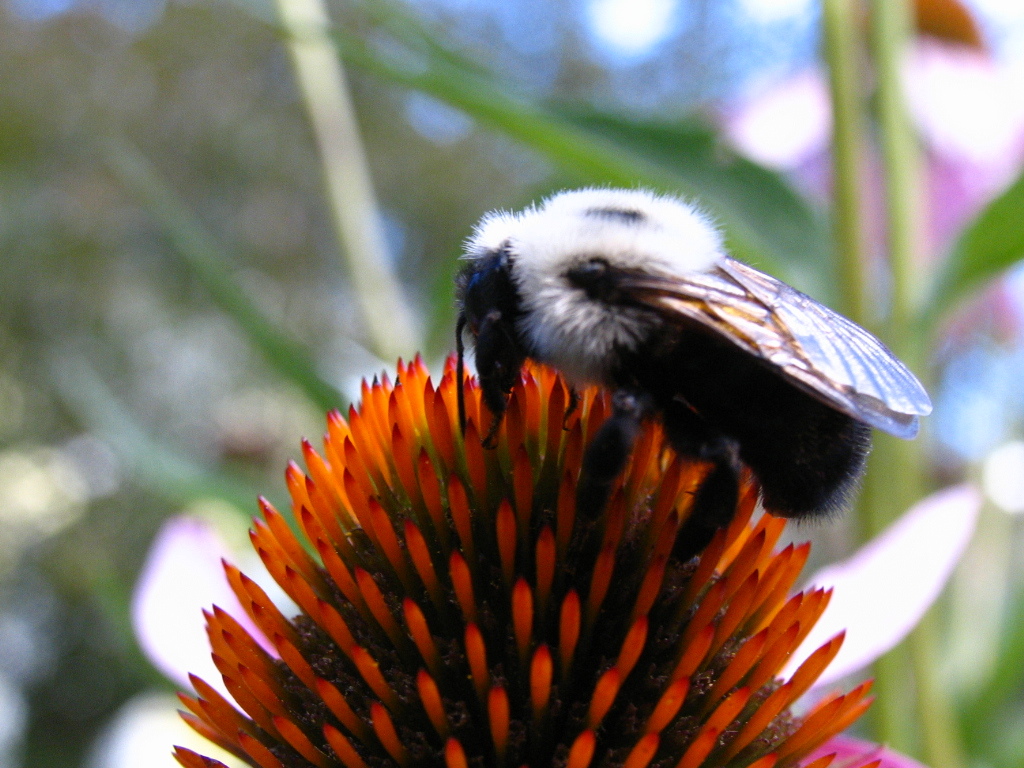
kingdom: Animalia
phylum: Arthropoda
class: Insecta
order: Hymenoptera
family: Apidae
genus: Bombus
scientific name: Bombus citrinus
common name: Lemon cuckoo bumble bee
